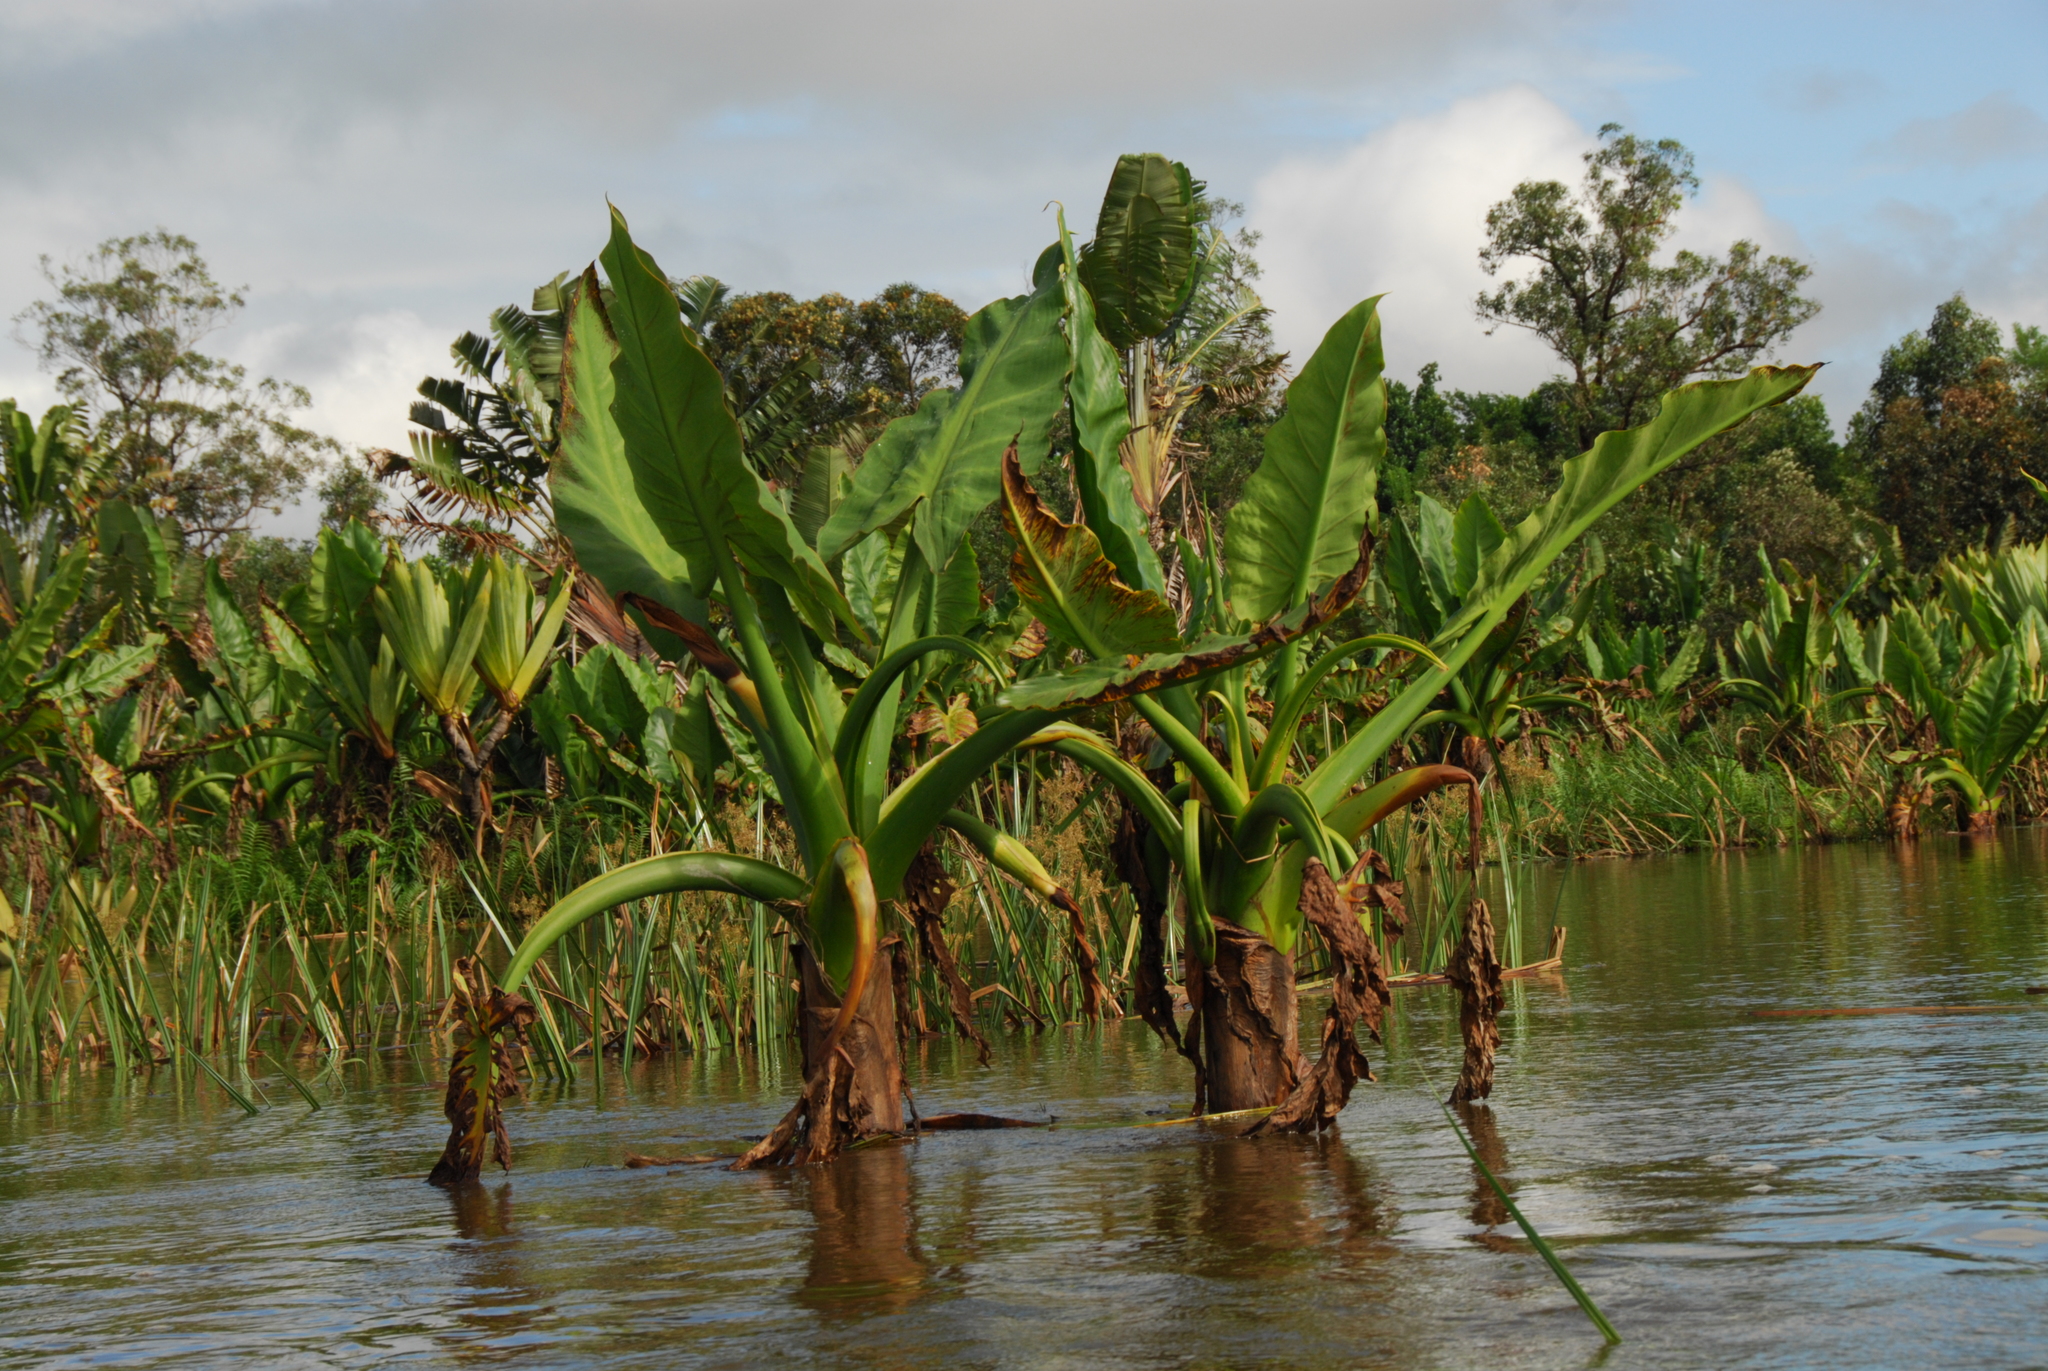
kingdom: Plantae
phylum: Tracheophyta
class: Liliopsida
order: Alismatales
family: Araceae
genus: Typhonodorum
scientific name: Typhonodorum lindleyanum
